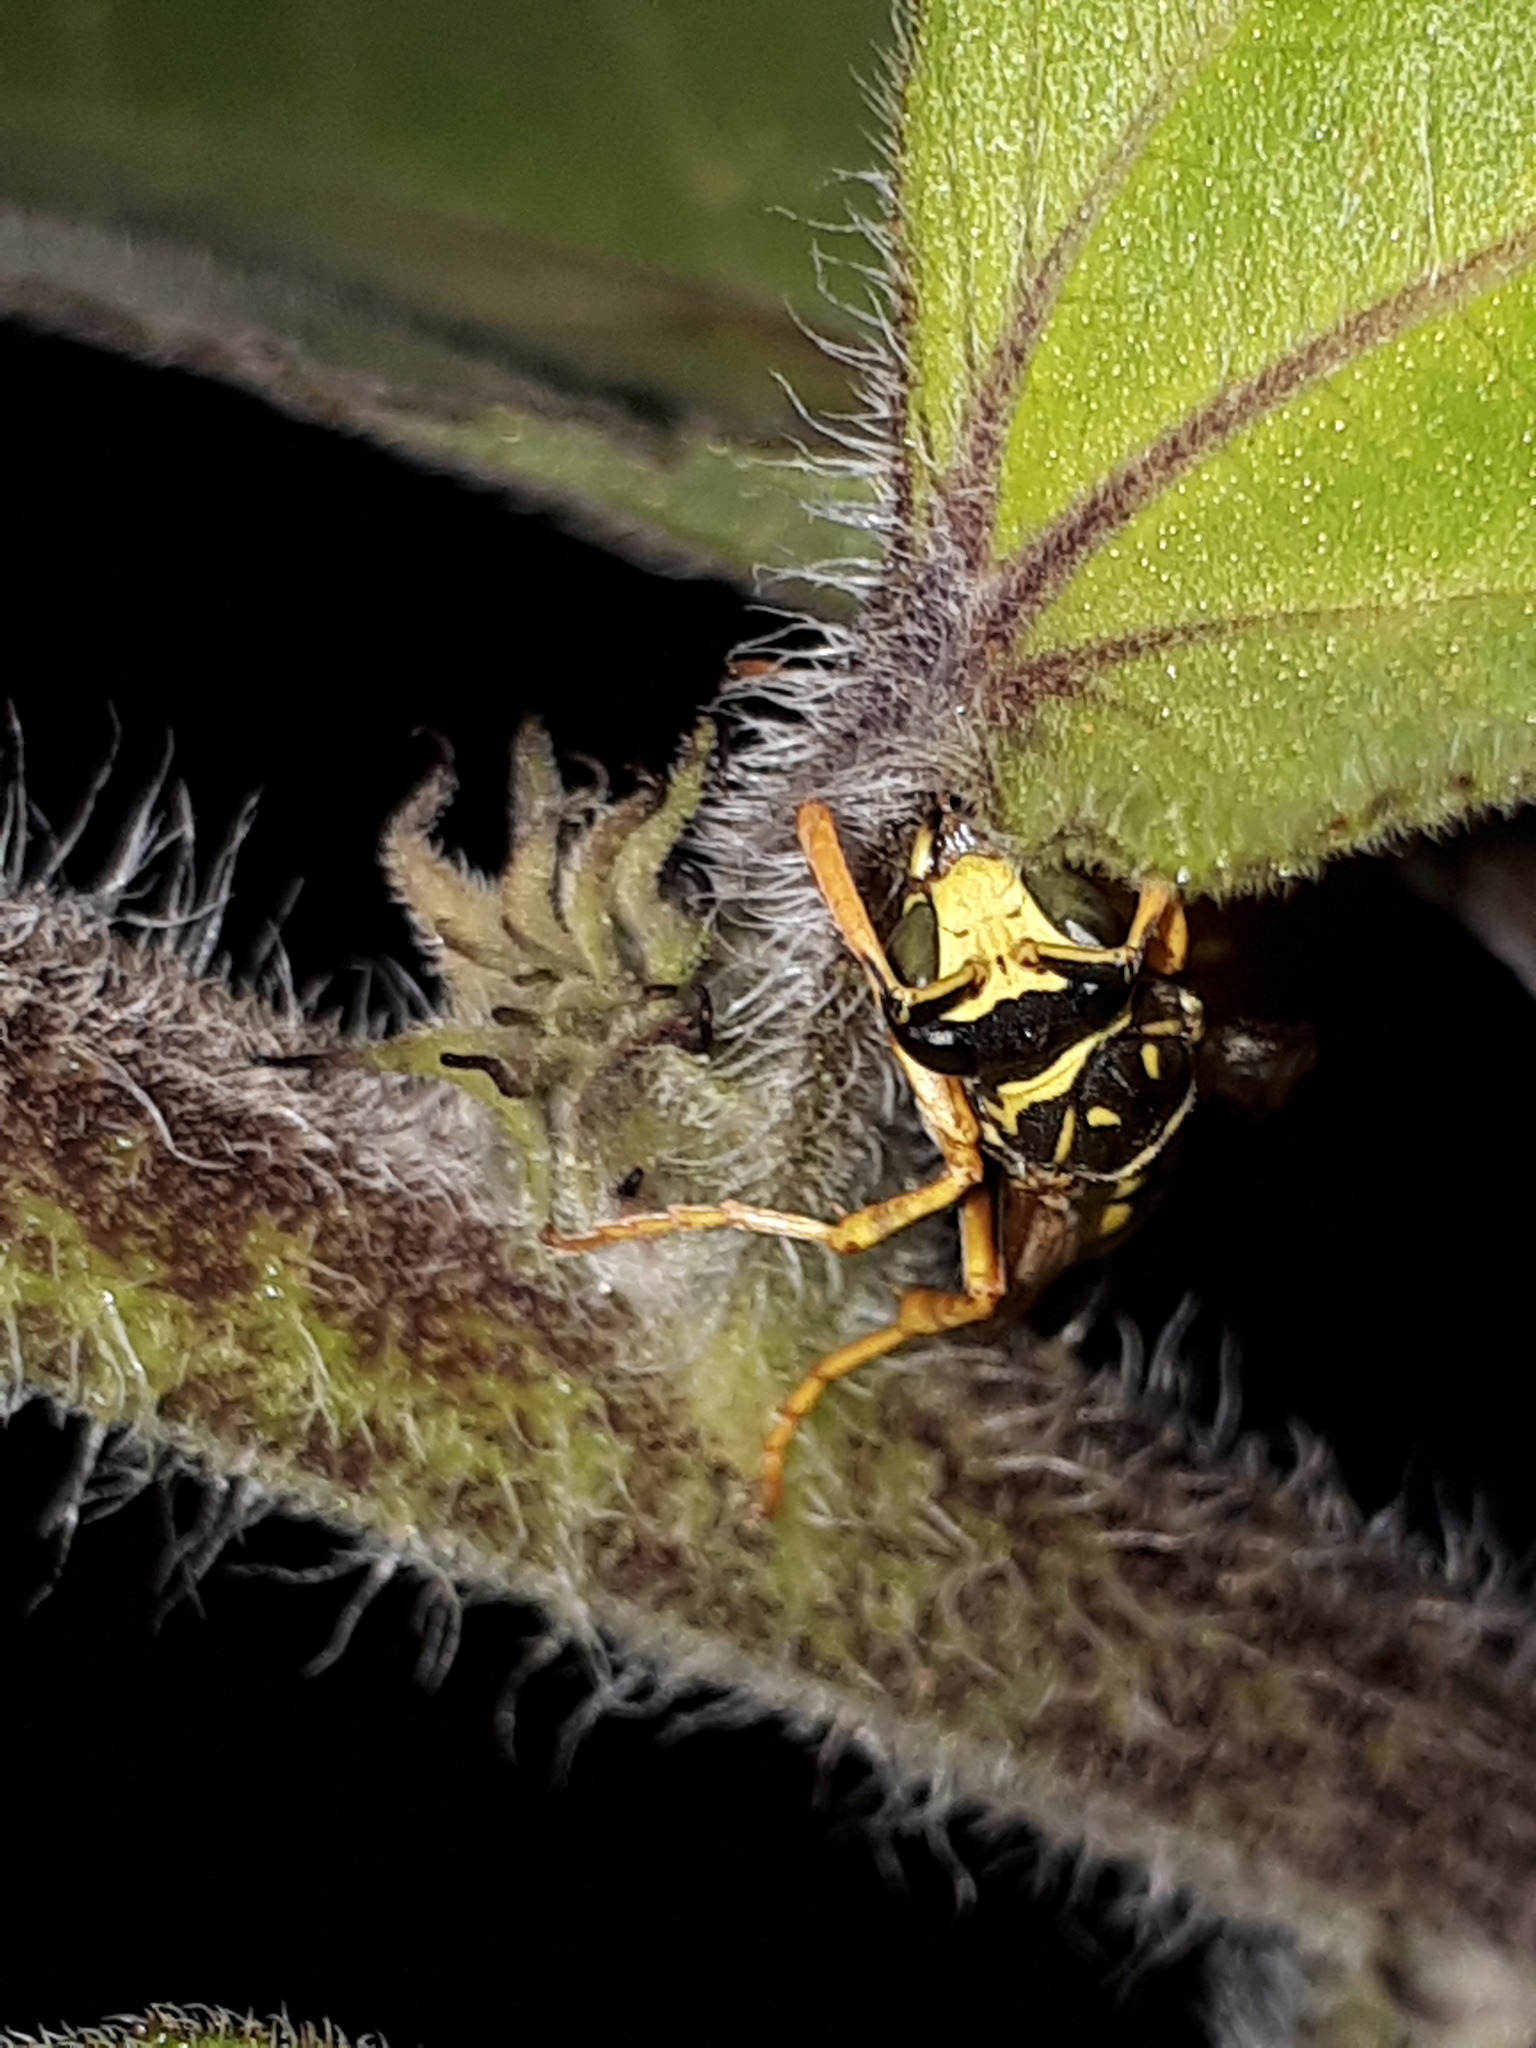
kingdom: Animalia
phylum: Arthropoda
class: Insecta
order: Hymenoptera
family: Eumenidae
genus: Polistes
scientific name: Polistes dominula
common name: Paper wasp
